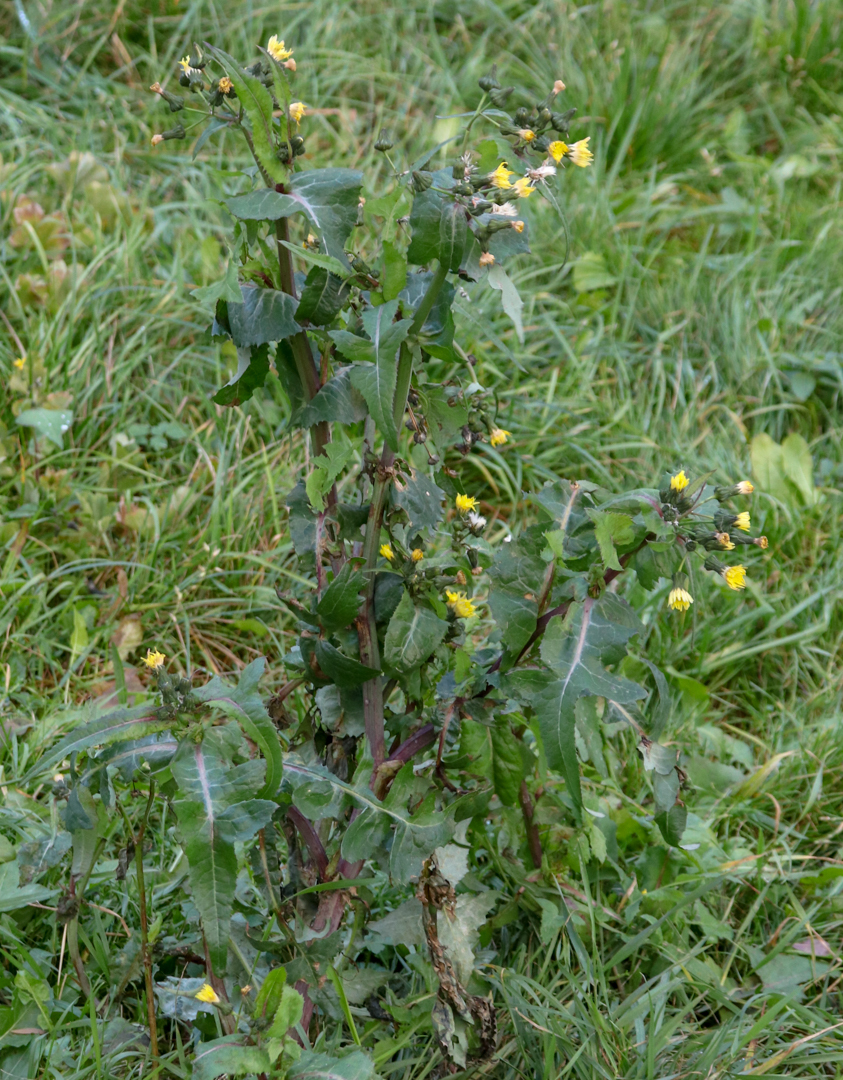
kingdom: Plantae
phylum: Tracheophyta
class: Magnoliopsida
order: Asterales
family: Asteraceae
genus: Sonchus
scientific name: Sonchus oleraceus
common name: Common sowthistle
